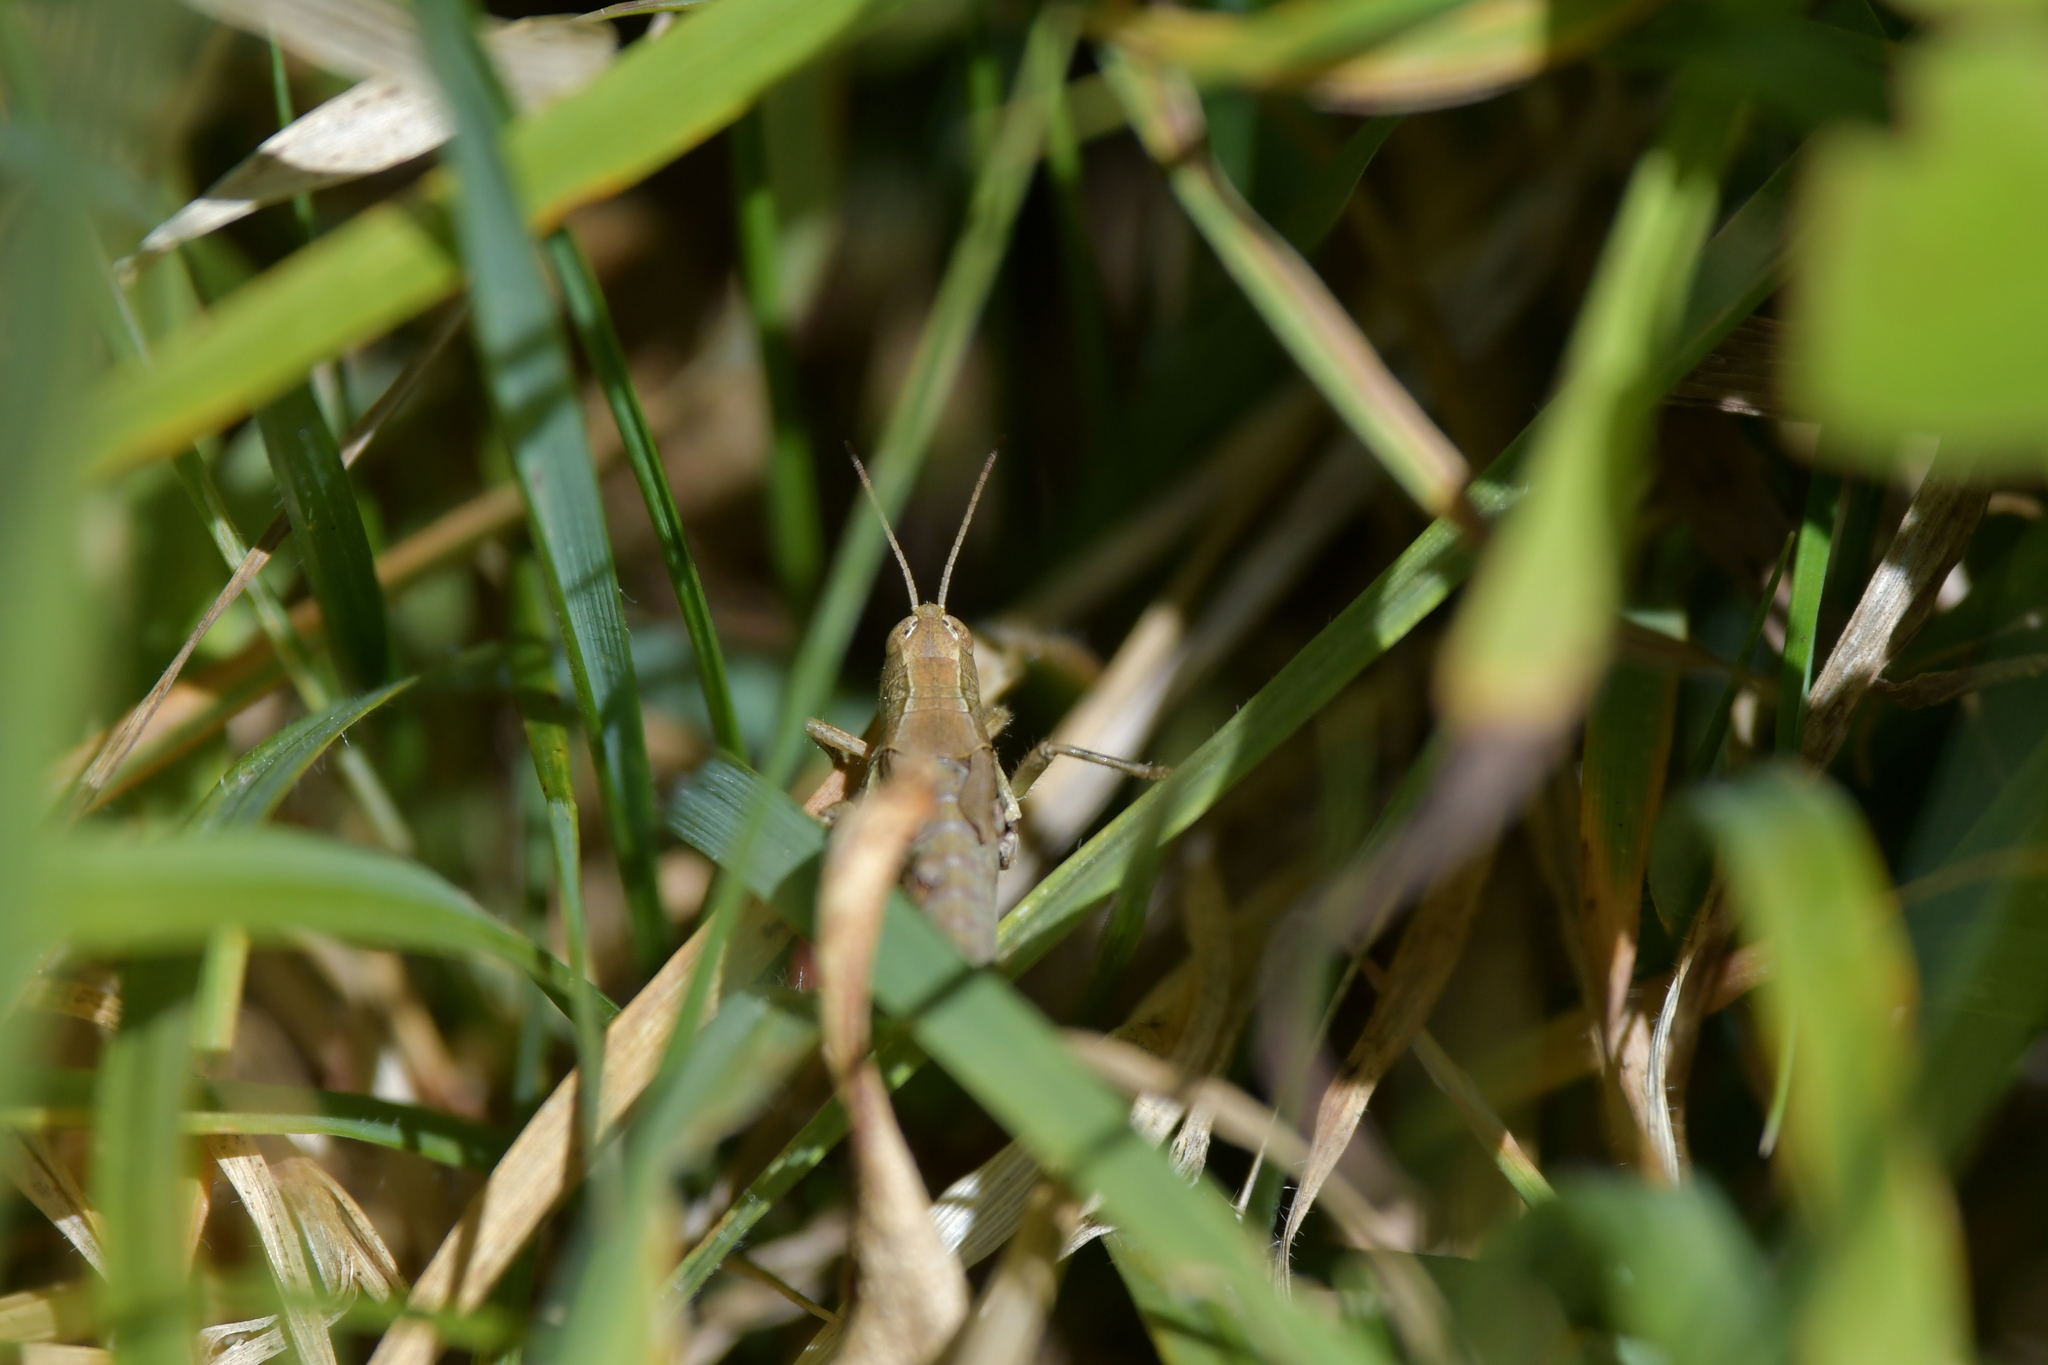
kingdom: Animalia
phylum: Arthropoda
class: Insecta
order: Orthoptera
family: Acrididae
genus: Phaulacridium
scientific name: Phaulacridium marginale
